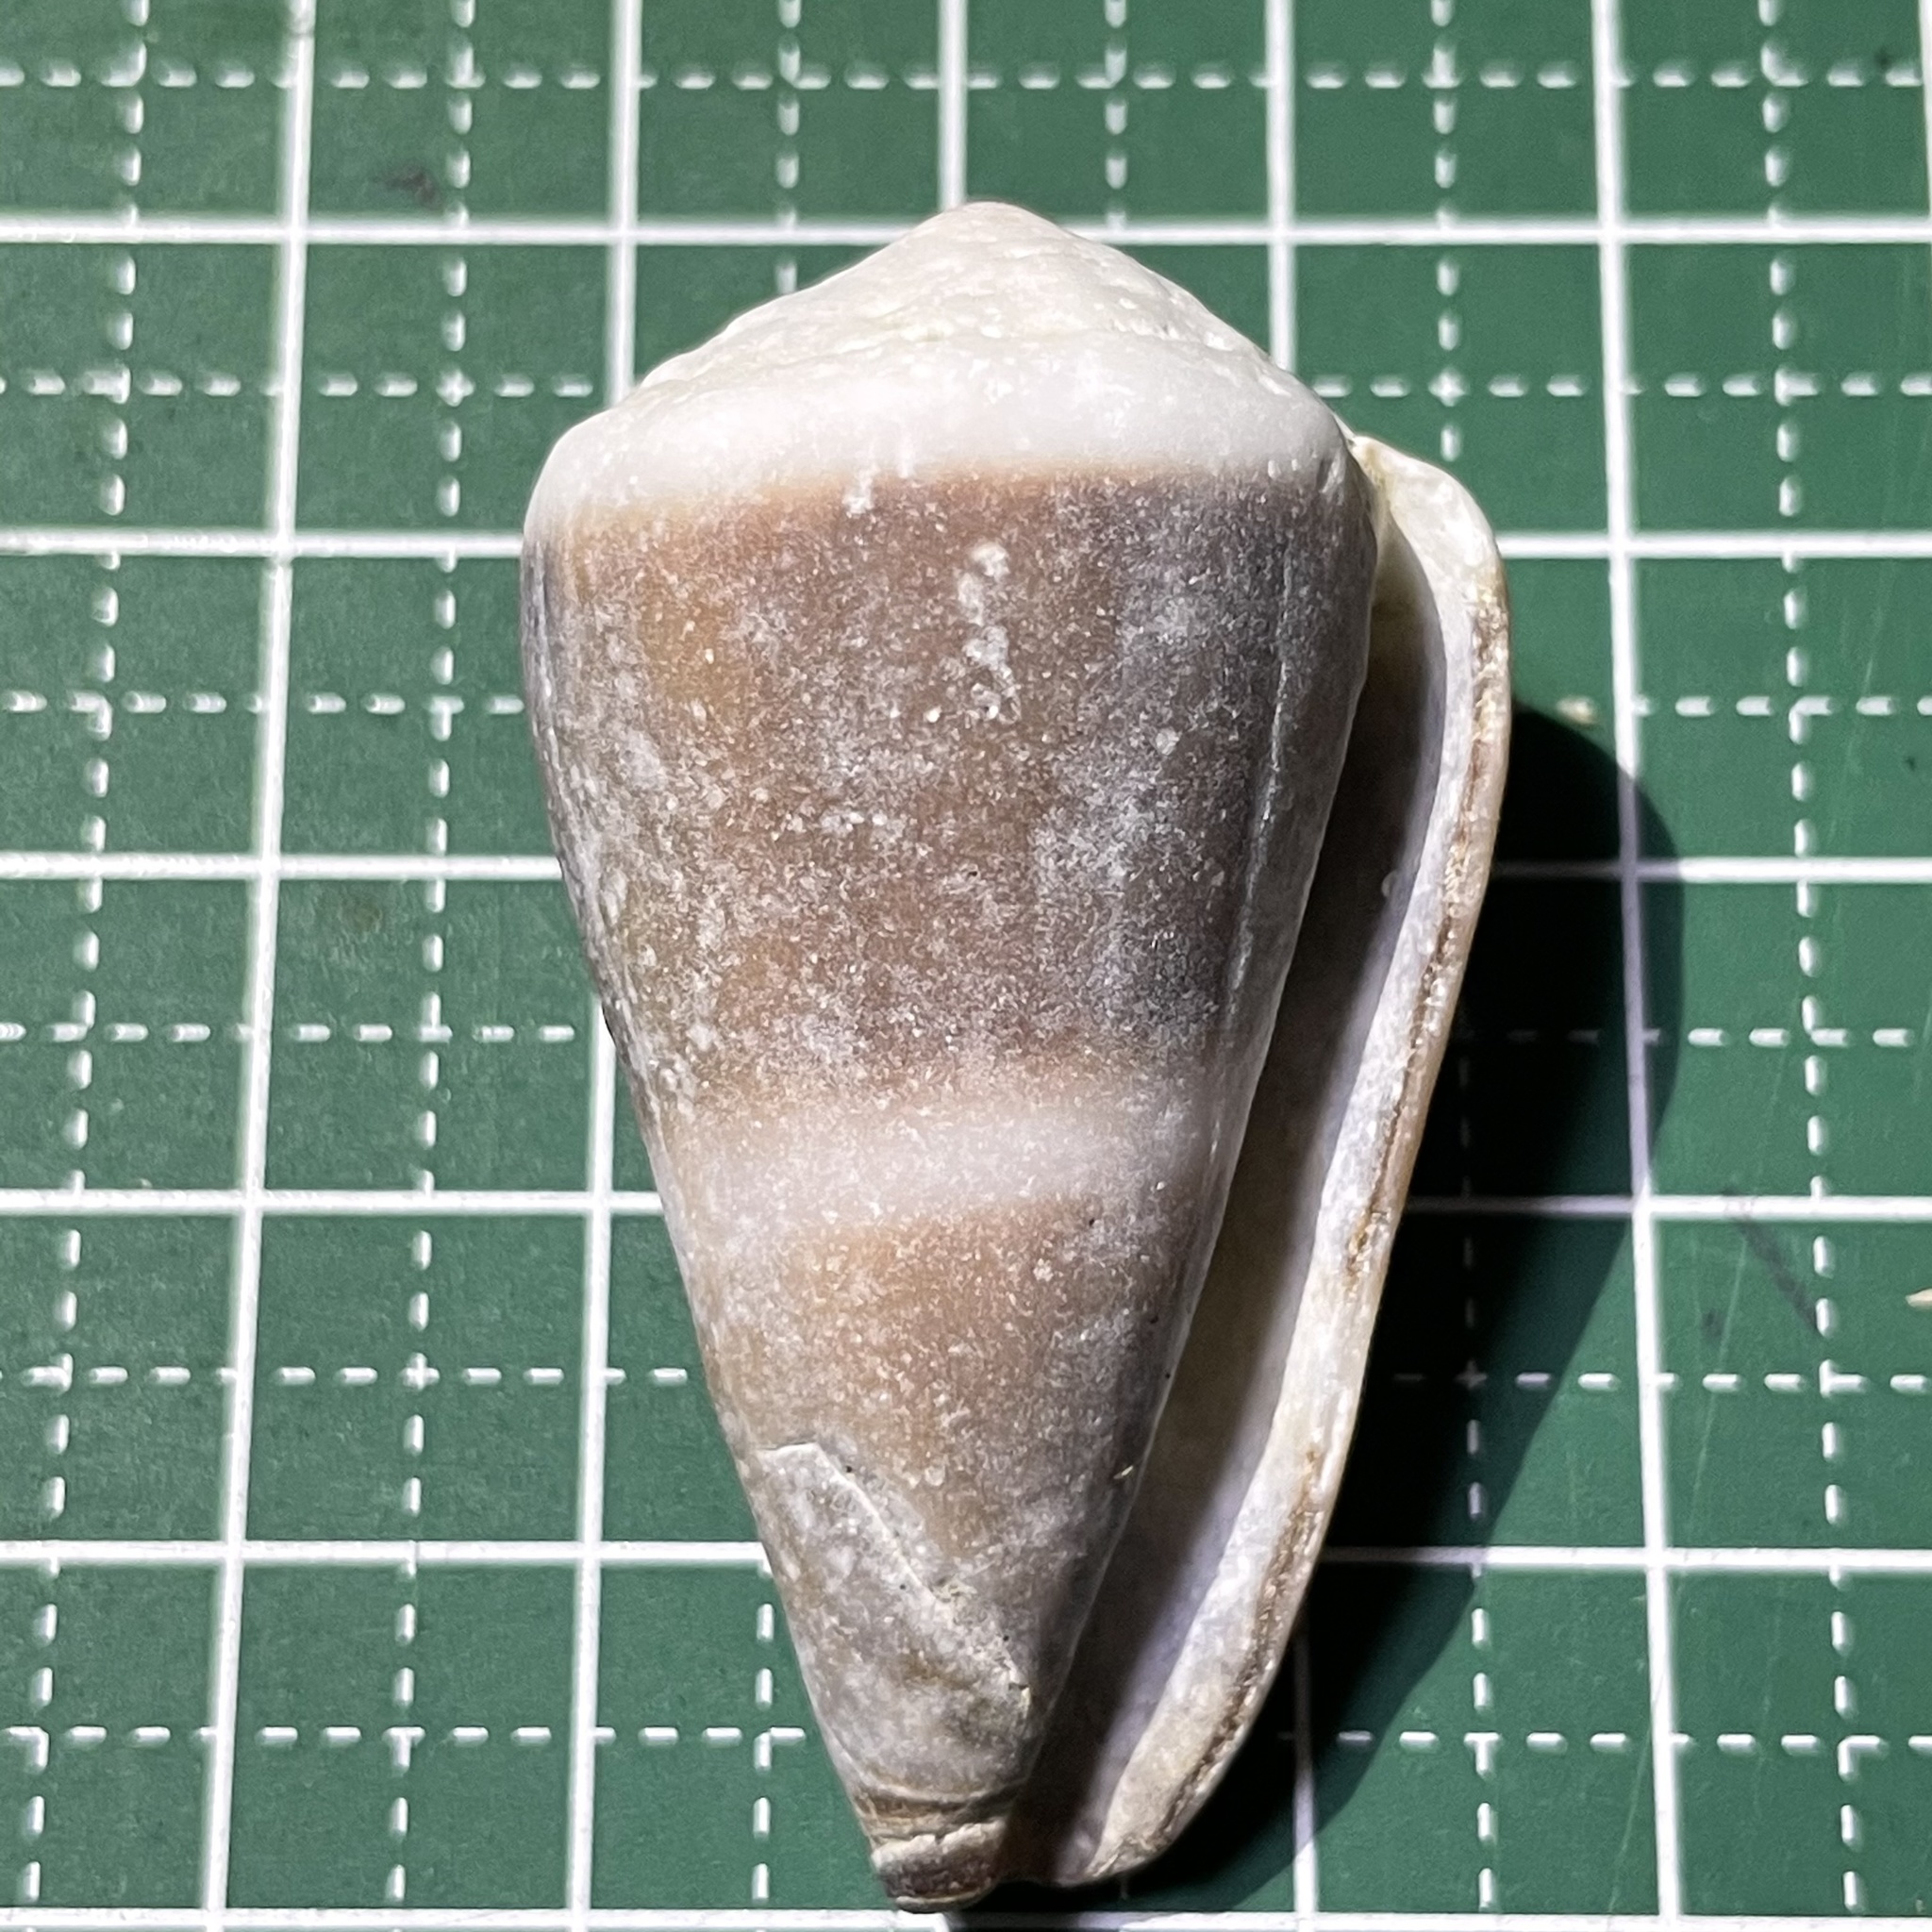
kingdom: Animalia
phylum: Mollusca
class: Gastropoda
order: Neogastropoda
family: Conidae
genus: Conus
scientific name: Conus lividus
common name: Livid cone
